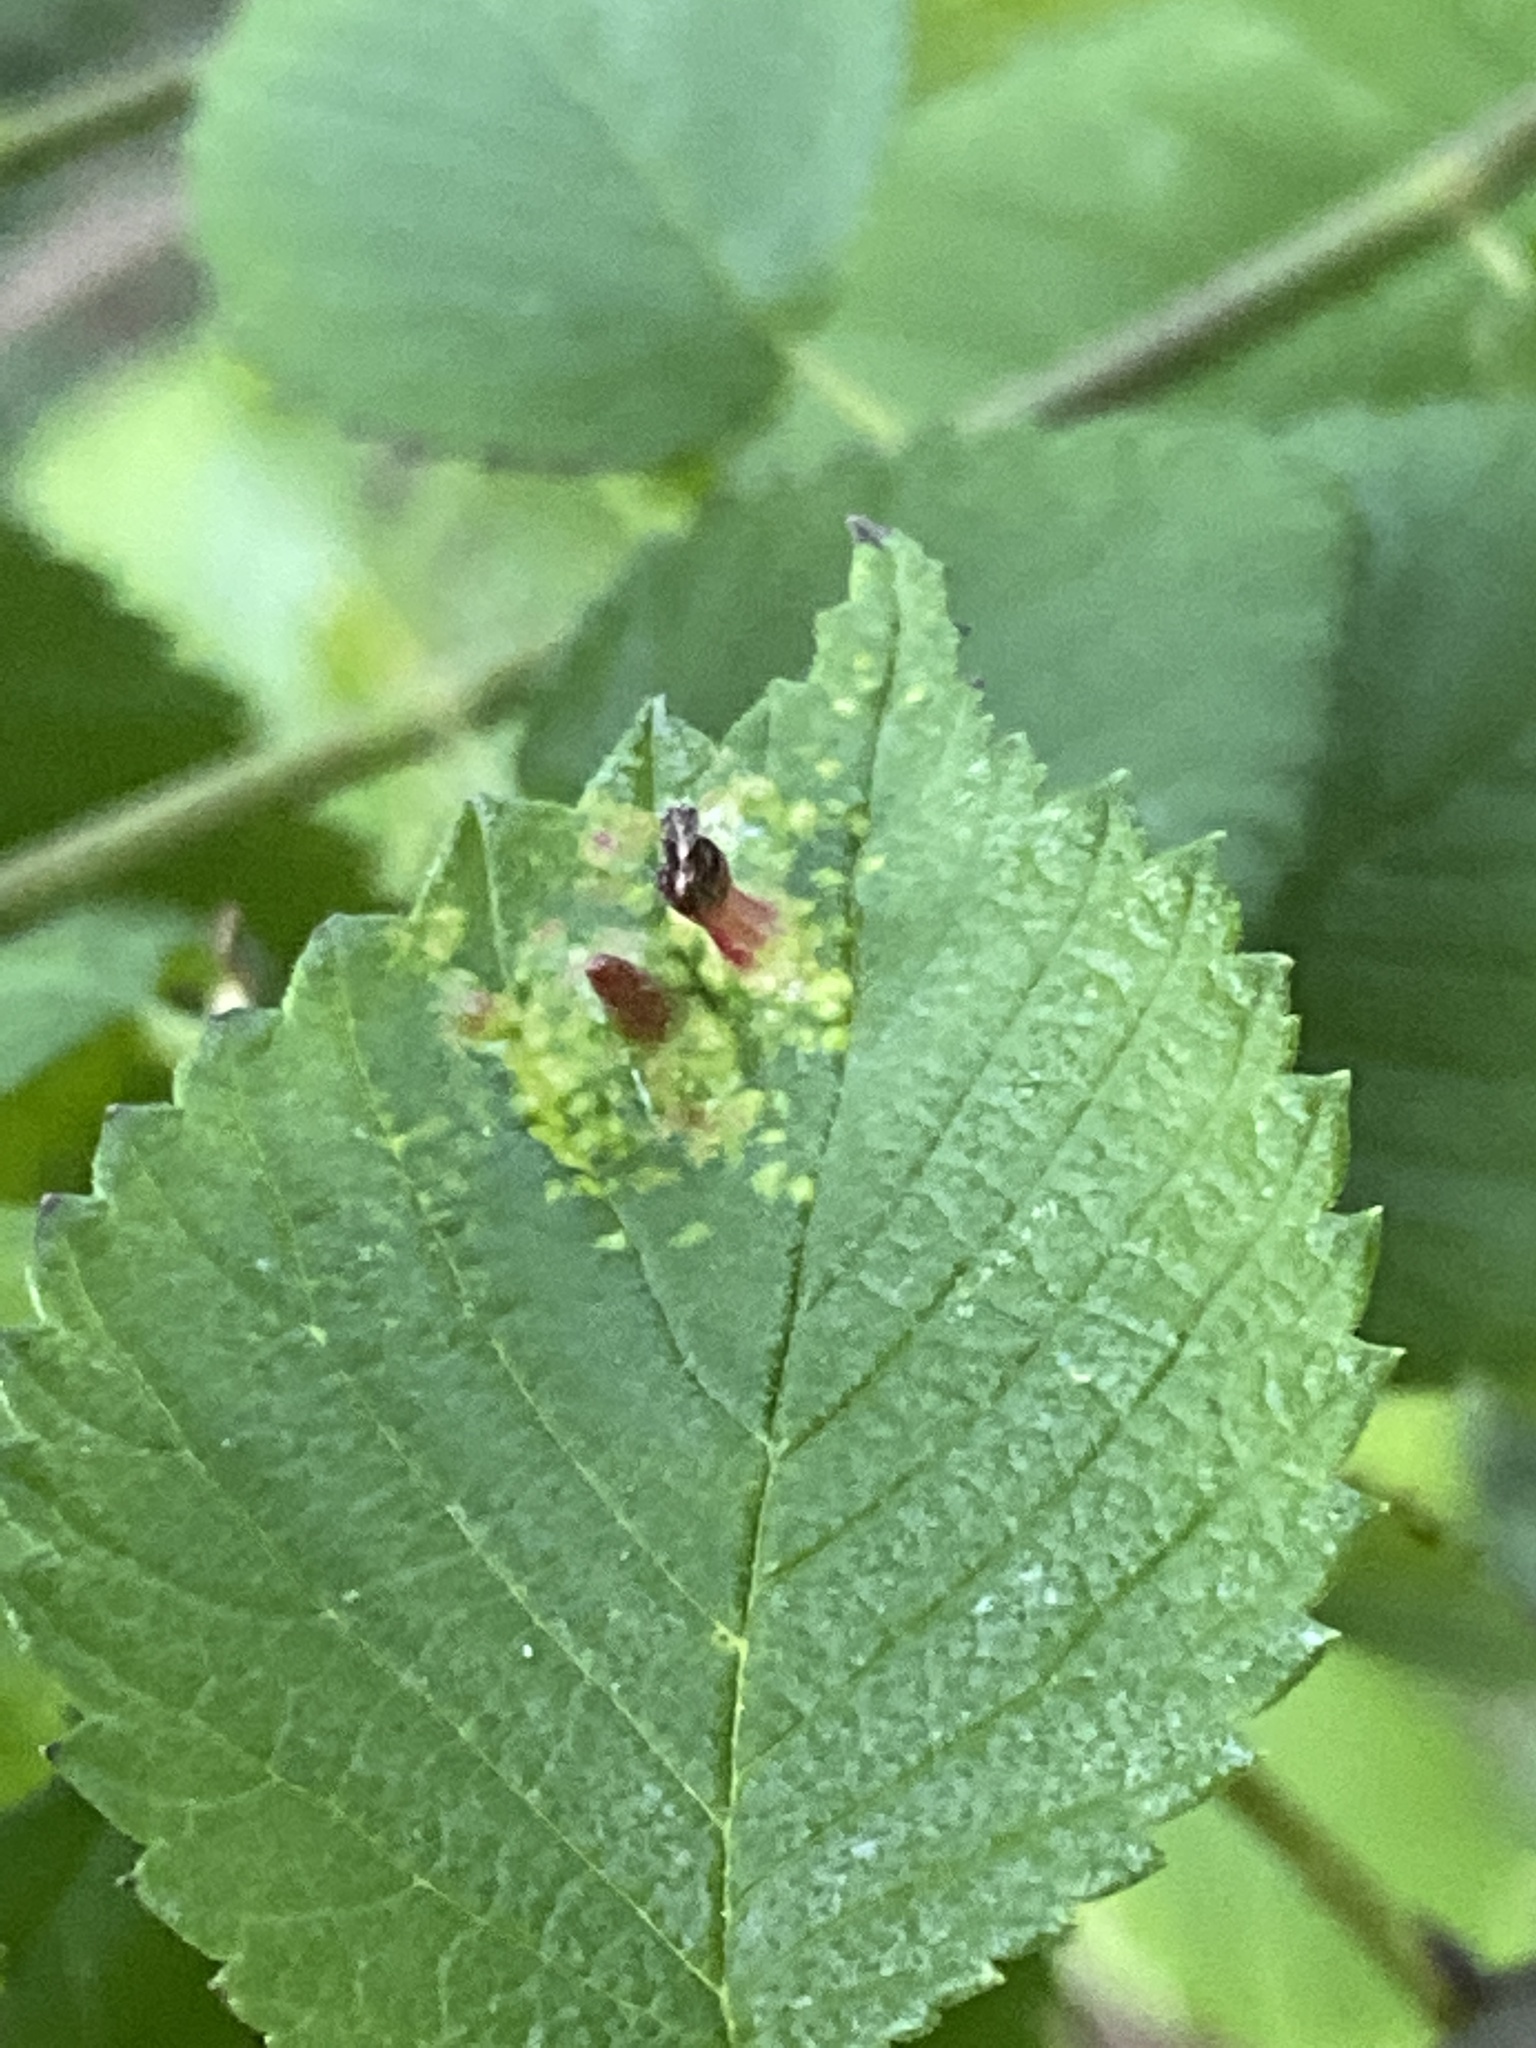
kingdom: Animalia
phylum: Arthropoda
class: Insecta
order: Hemiptera
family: Aphididae
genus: Tetraneura
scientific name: Tetraneura nigriabdominalis
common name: Aphid
